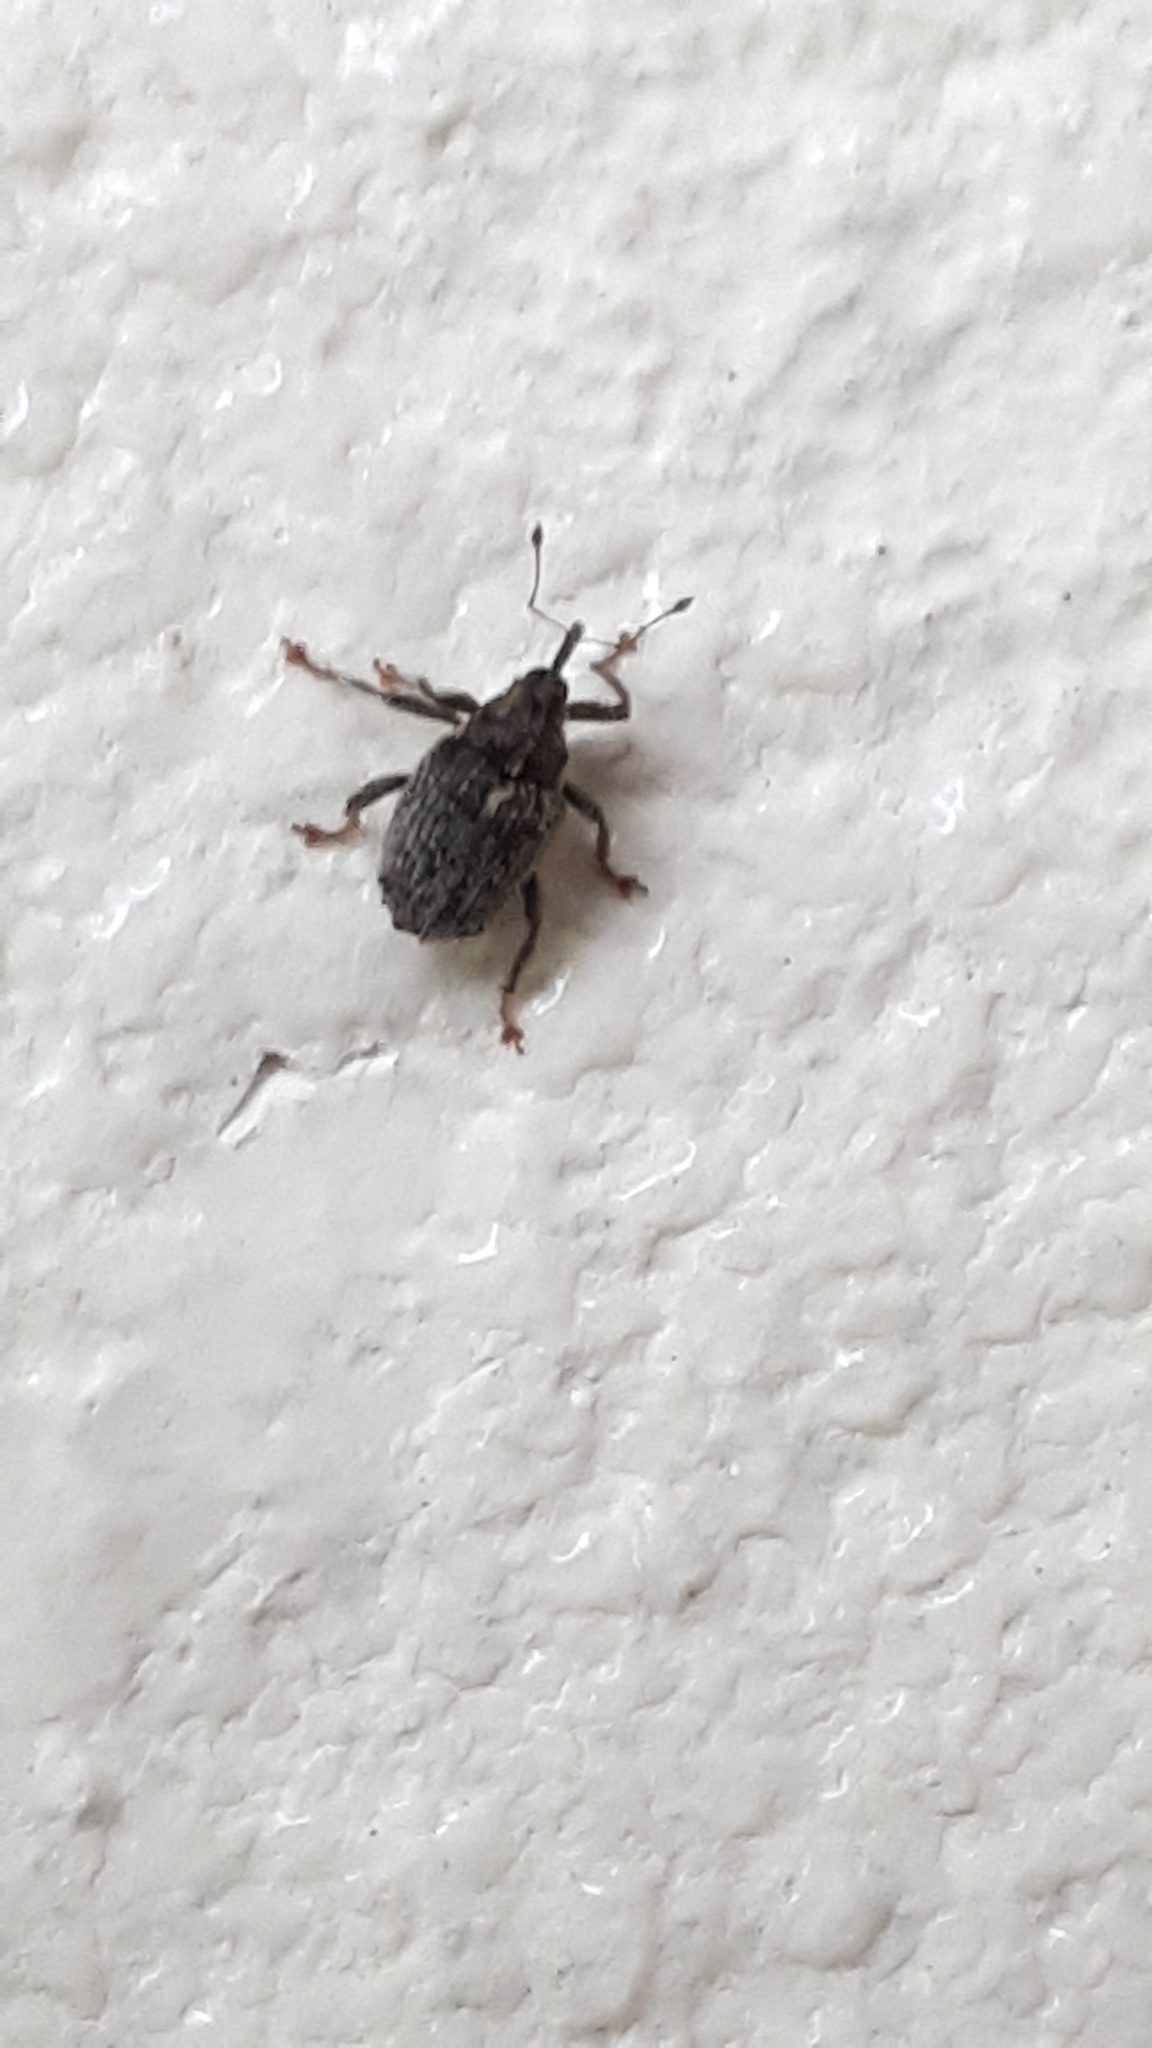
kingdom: Animalia
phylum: Arthropoda
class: Insecta
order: Coleoptera
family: Curculionidae
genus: Ceutorhynchus
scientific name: Ceutorhynchus pallidactylus
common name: Cabbage stem weavil
